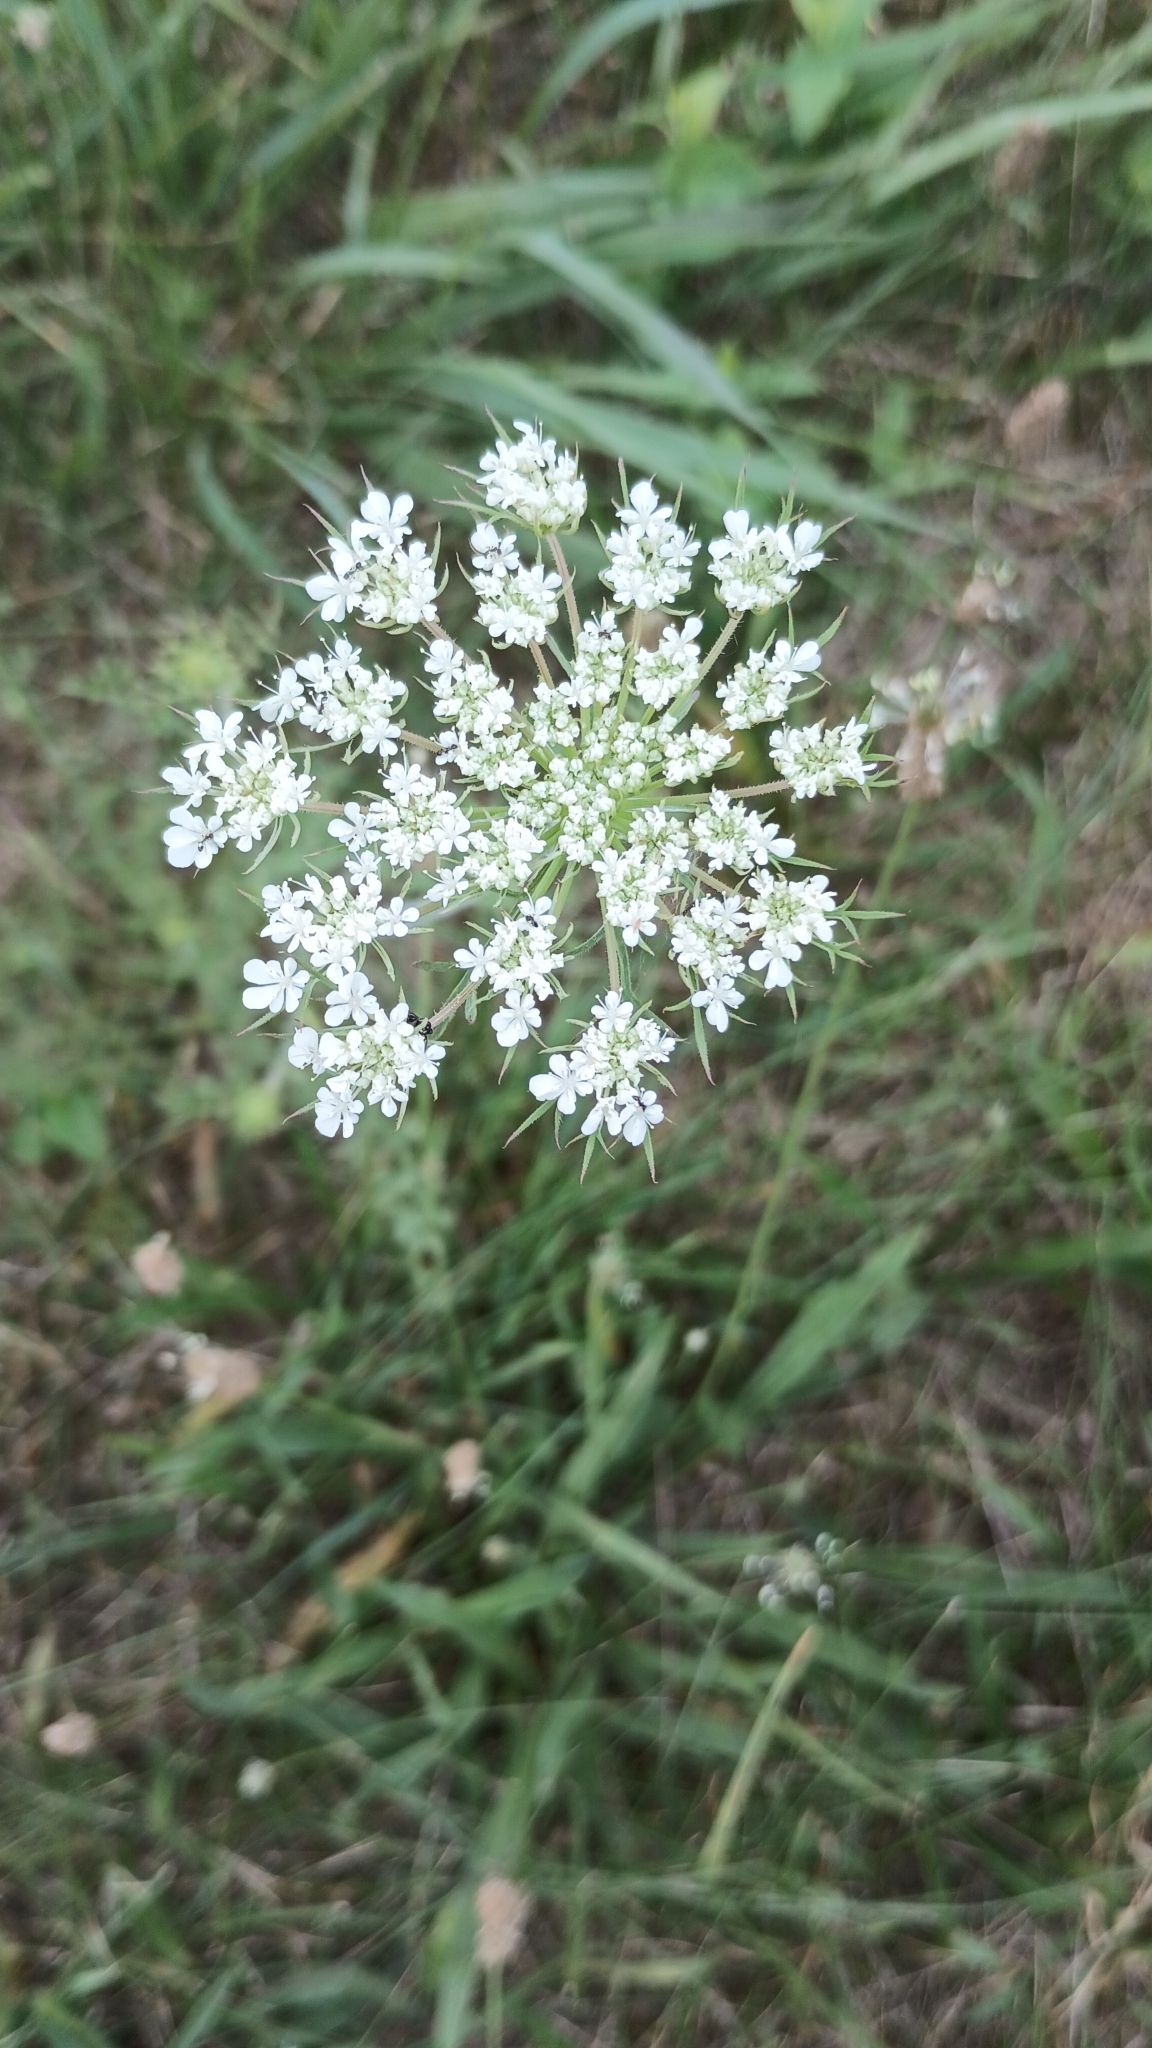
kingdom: Plantae
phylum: Tracheophyta
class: Magnoliopsida
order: Apiales
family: Apiaceae
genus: Daucus
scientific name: Daucus carota
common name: Wild carrot
